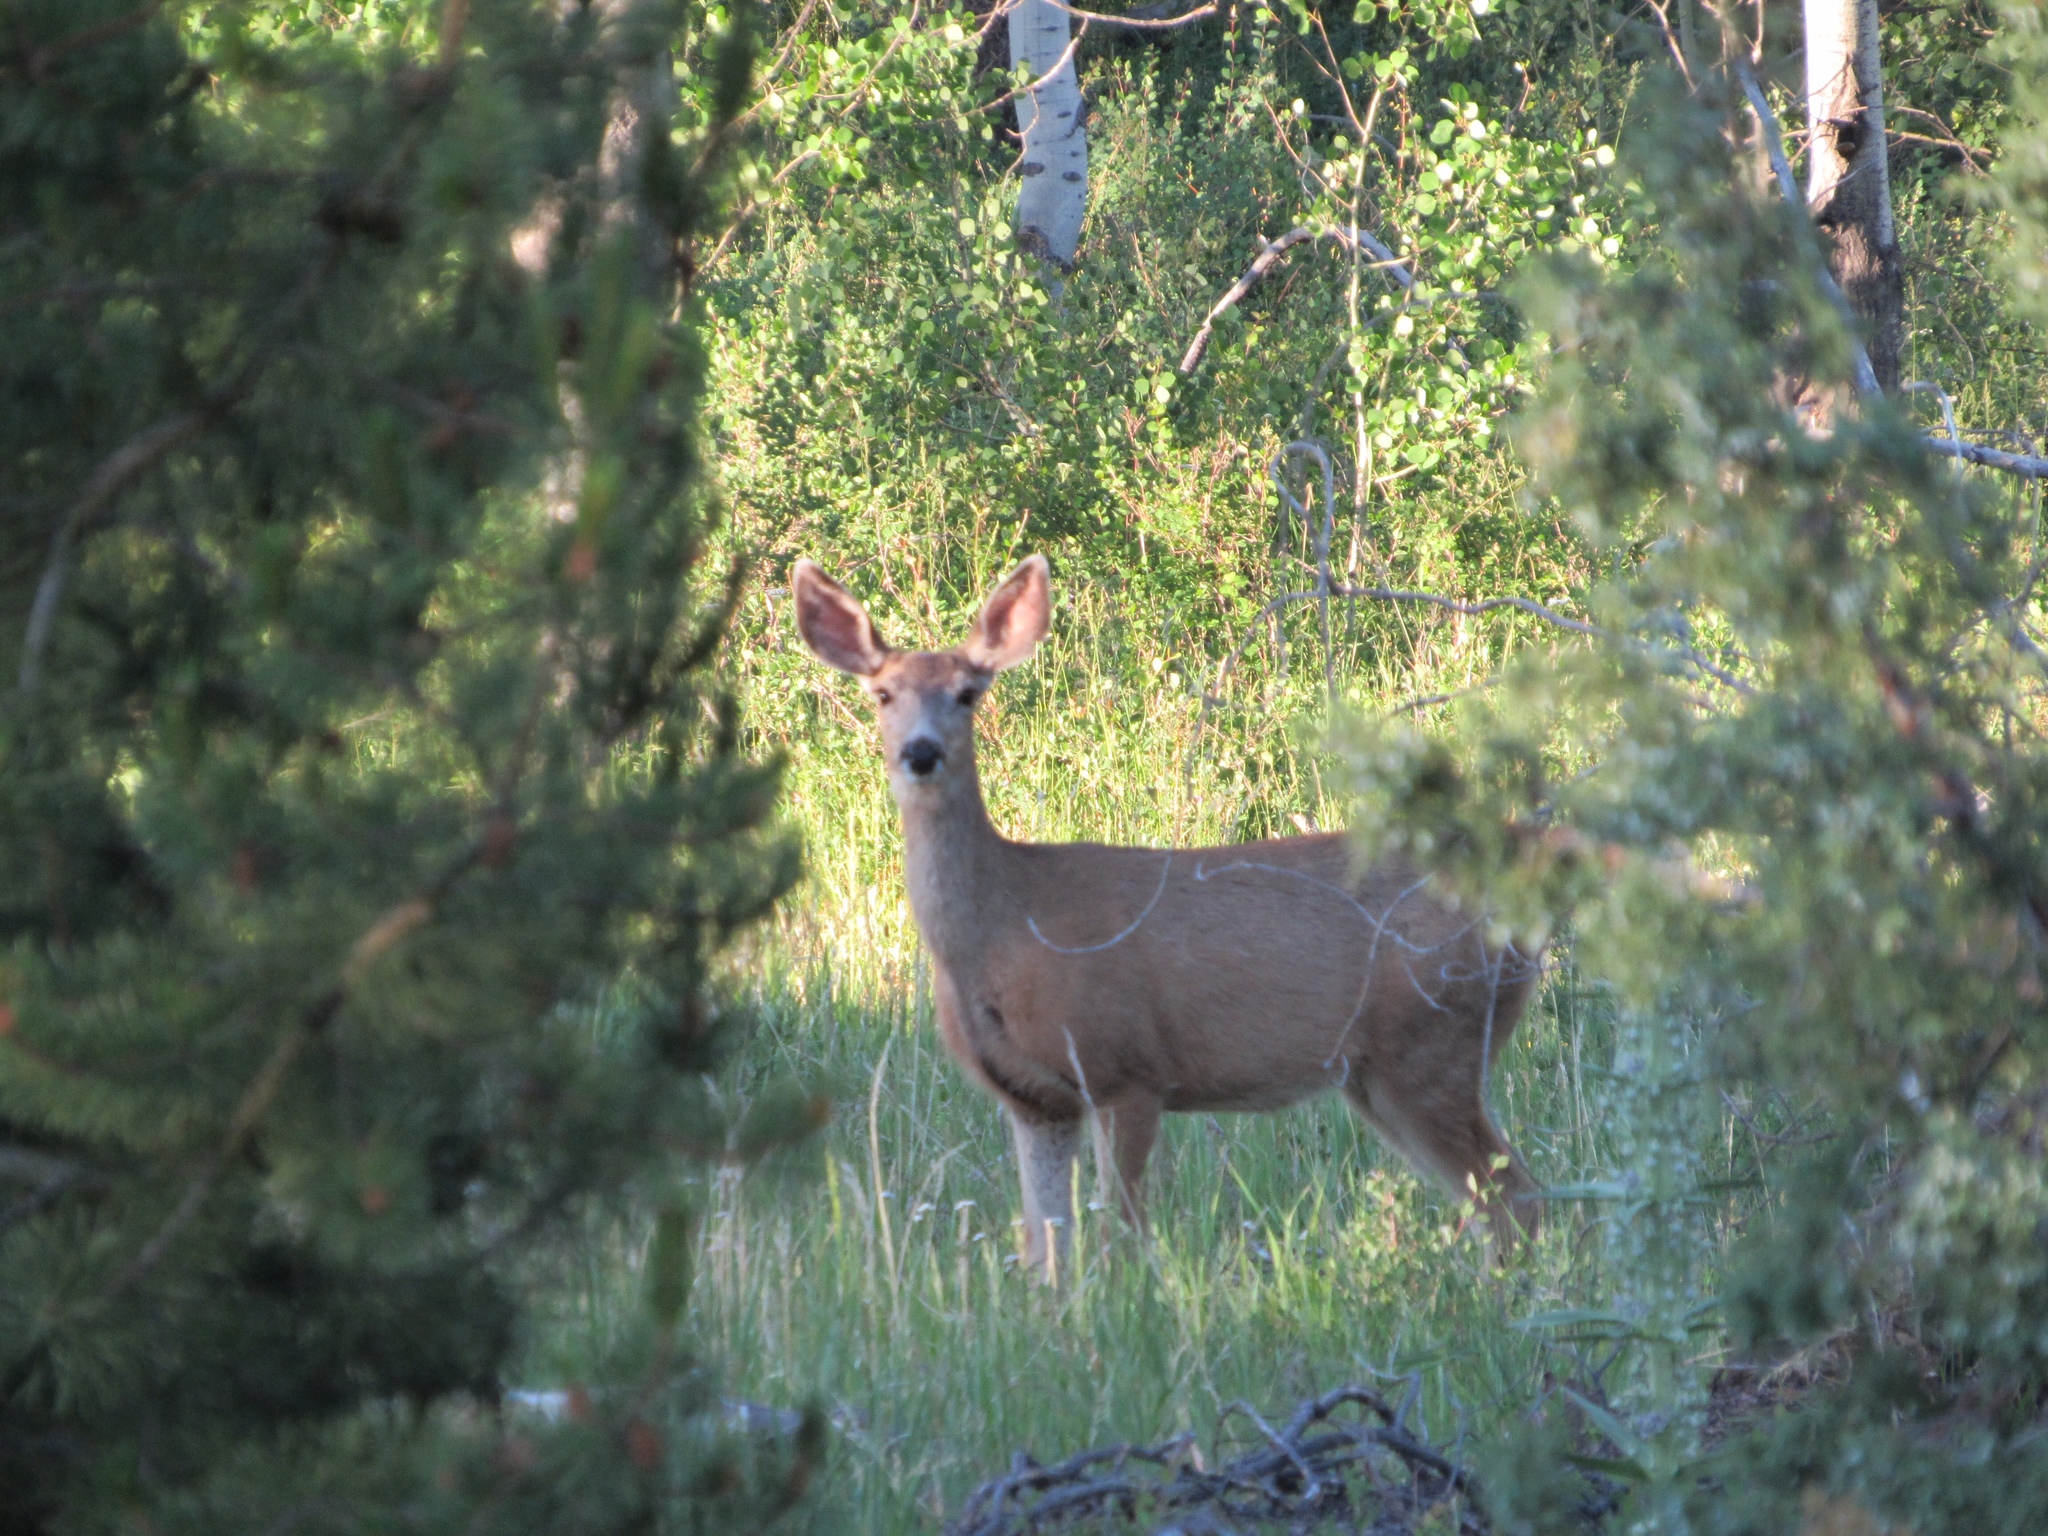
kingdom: Animalia
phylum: Chordata
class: Mammalia
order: Artiodactyla
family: Cervidae
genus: Odocoileus
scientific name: Odocoileus hemionus
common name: Mule deer
